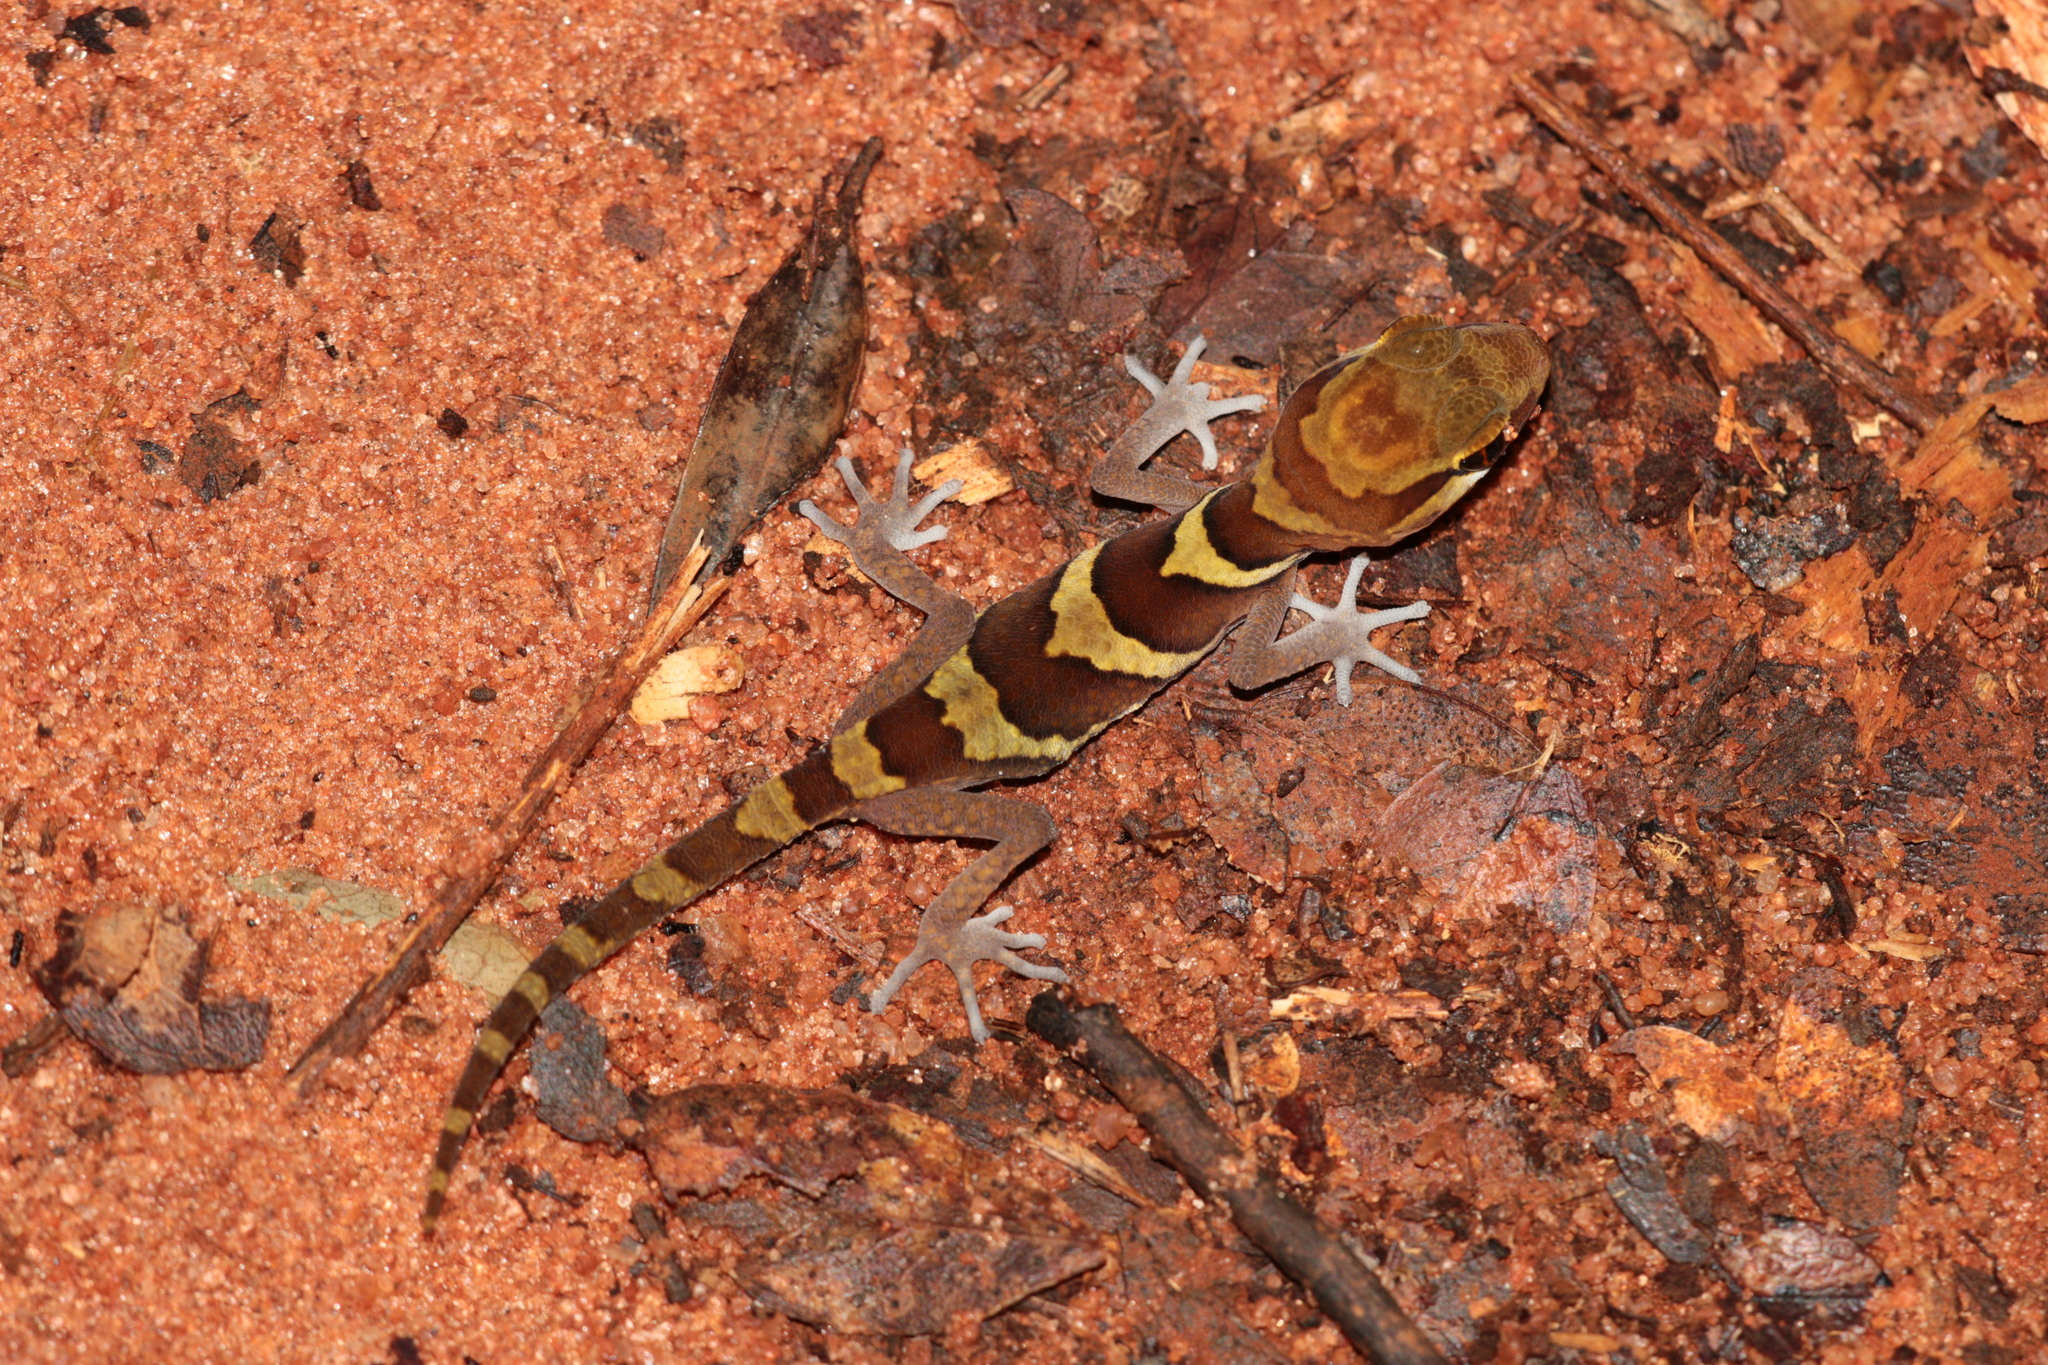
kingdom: Animalia
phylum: Chordata
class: Squamata
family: Gekkonidae
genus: Paroedura
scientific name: Paroedura picta
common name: Panther gecko
